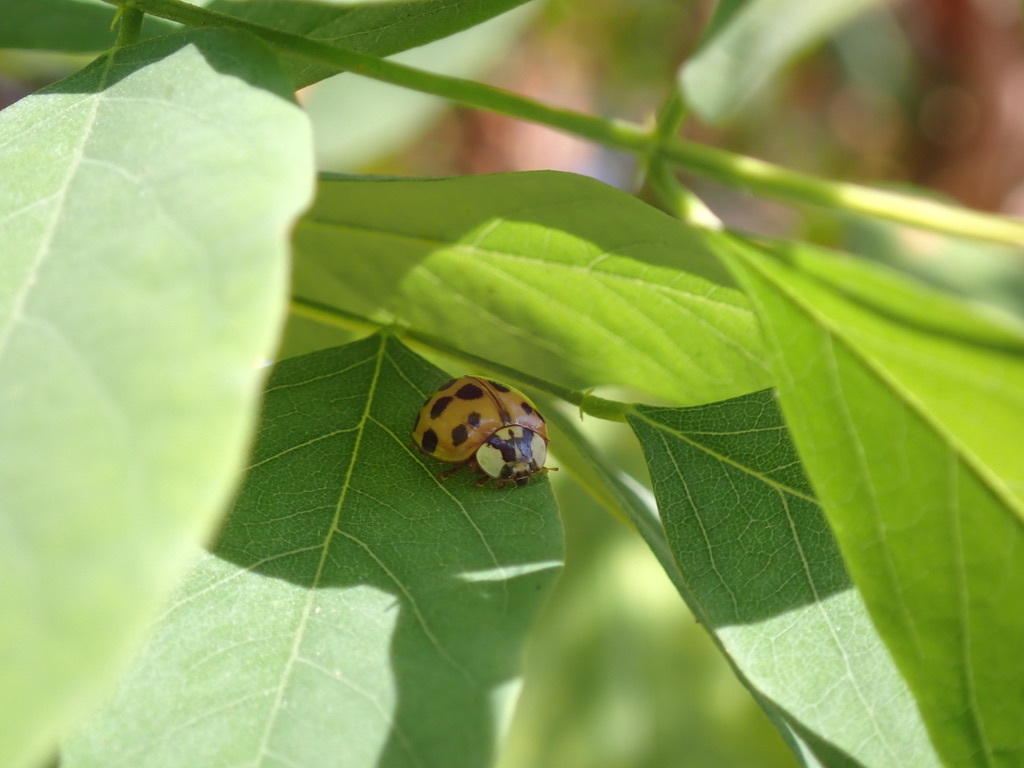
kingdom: Animalia
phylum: Arthropoda
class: Insecta
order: Coleoptera
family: Coccinellidae
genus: Harmonia
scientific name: Harmonia axyridis
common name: Harlequin ladybird
